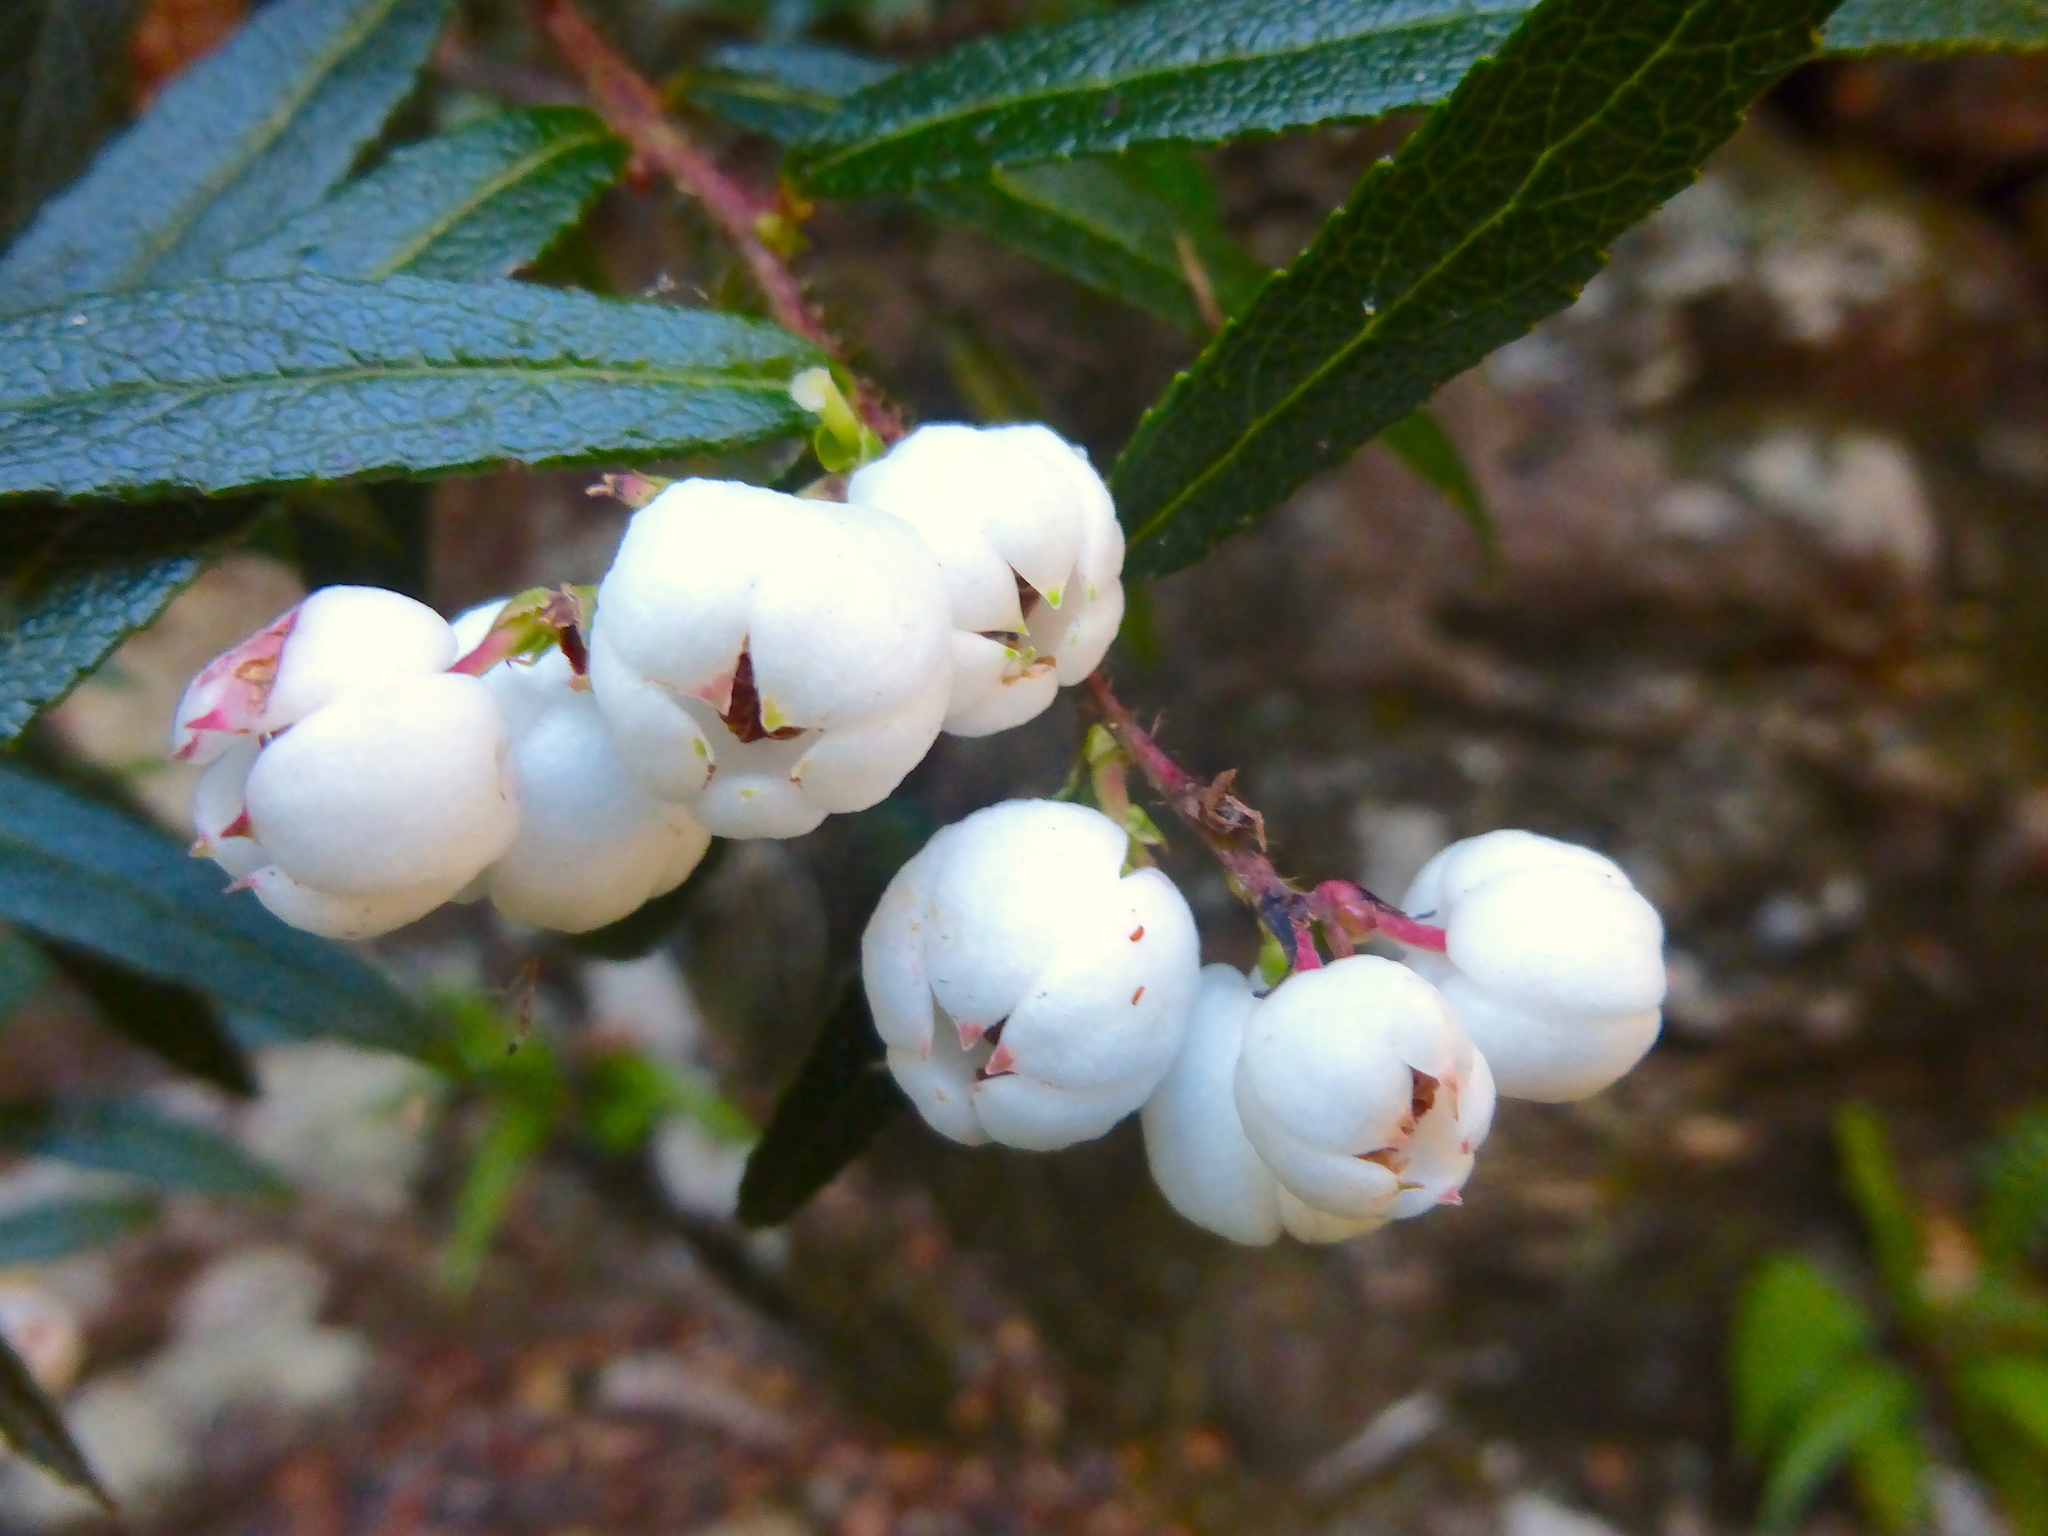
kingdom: Plantae
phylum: Tracheophyta
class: Magnoliopsida
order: Ericales
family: Ericaceae
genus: Gaultheria
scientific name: Gaultheria hispida
